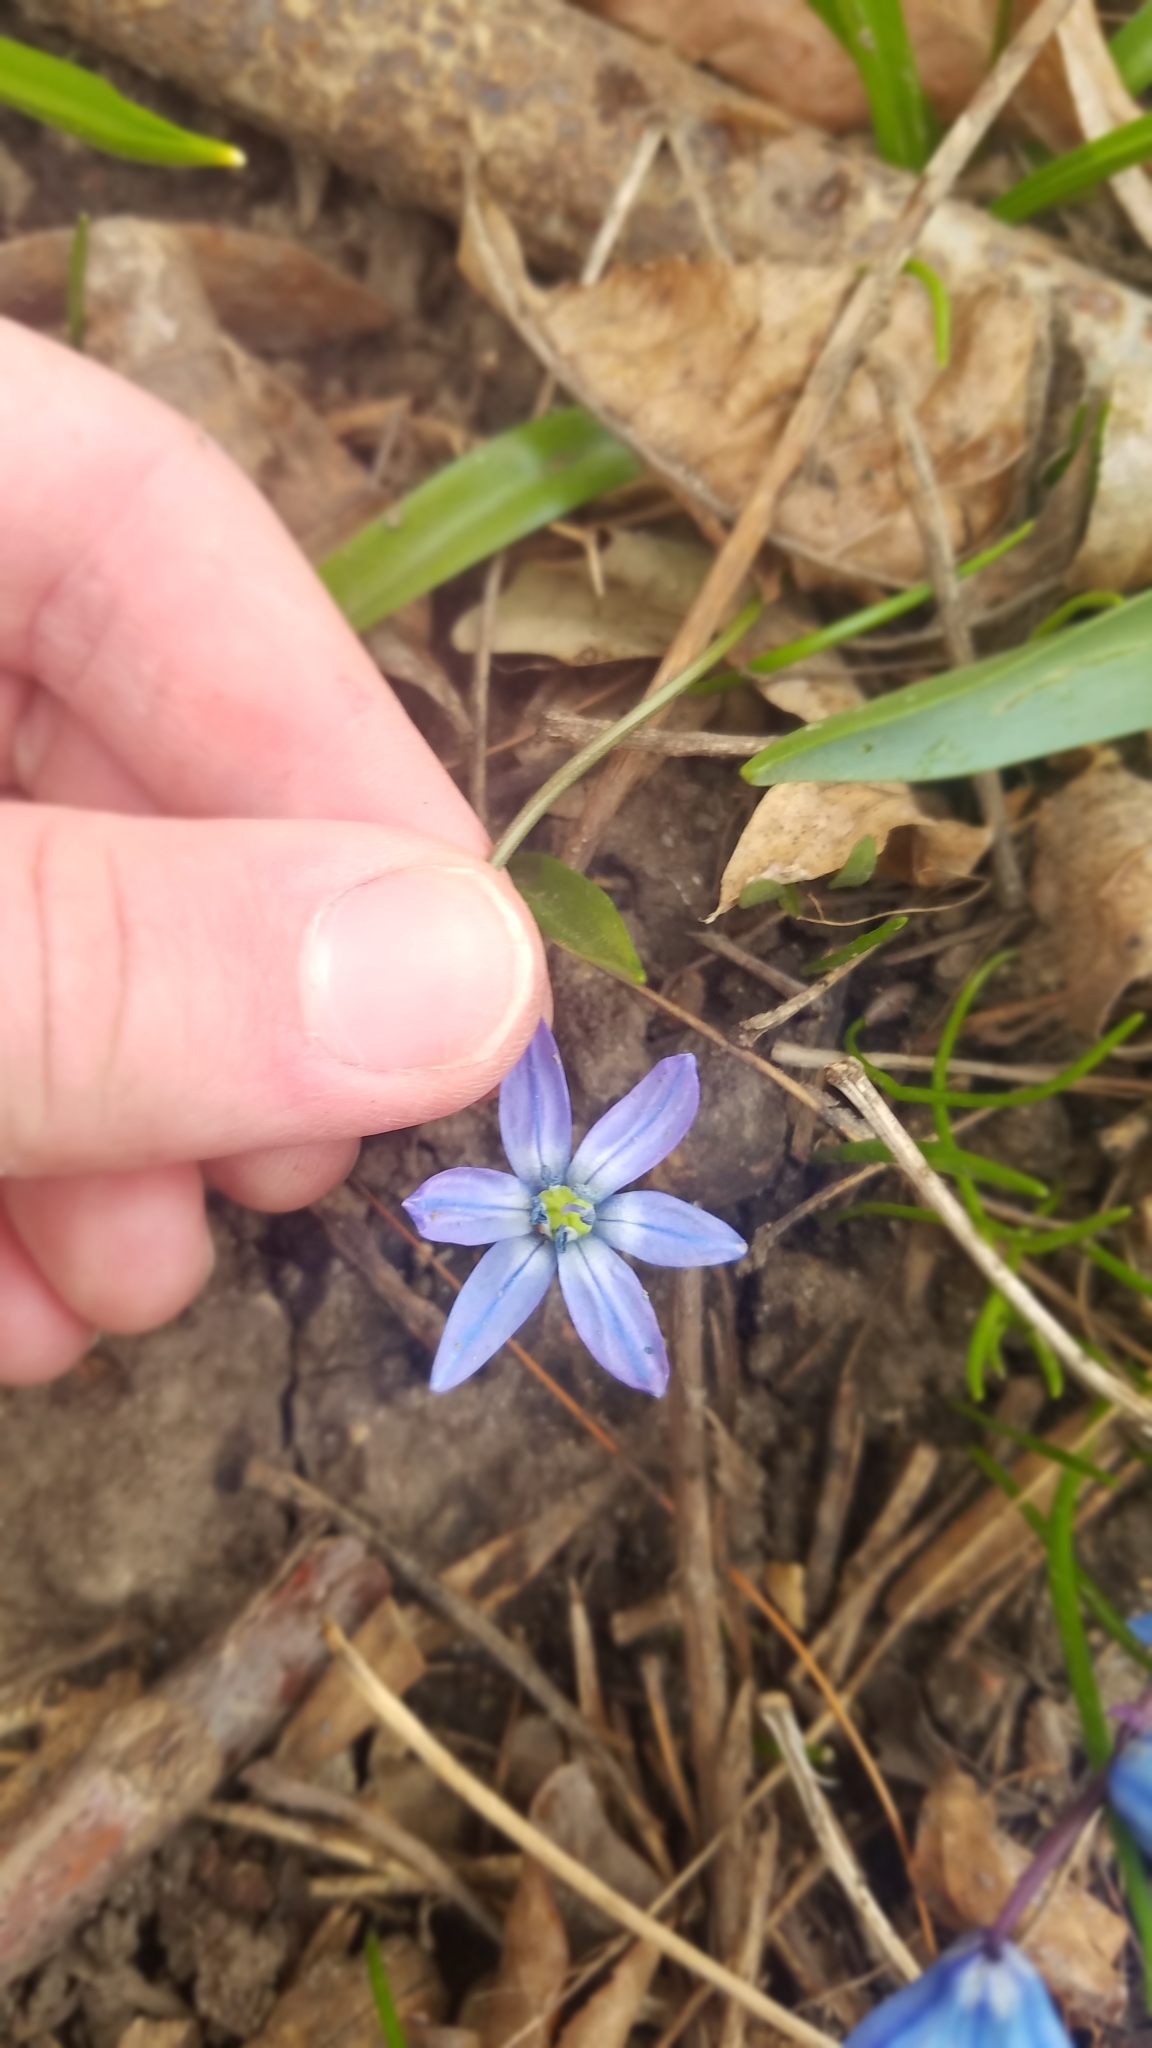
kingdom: Plantae
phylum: Tracheophyta
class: Liliopsida
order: Asparagales
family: Asparagaceae
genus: Scilla
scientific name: Scilla siberica
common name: Siberian squill
